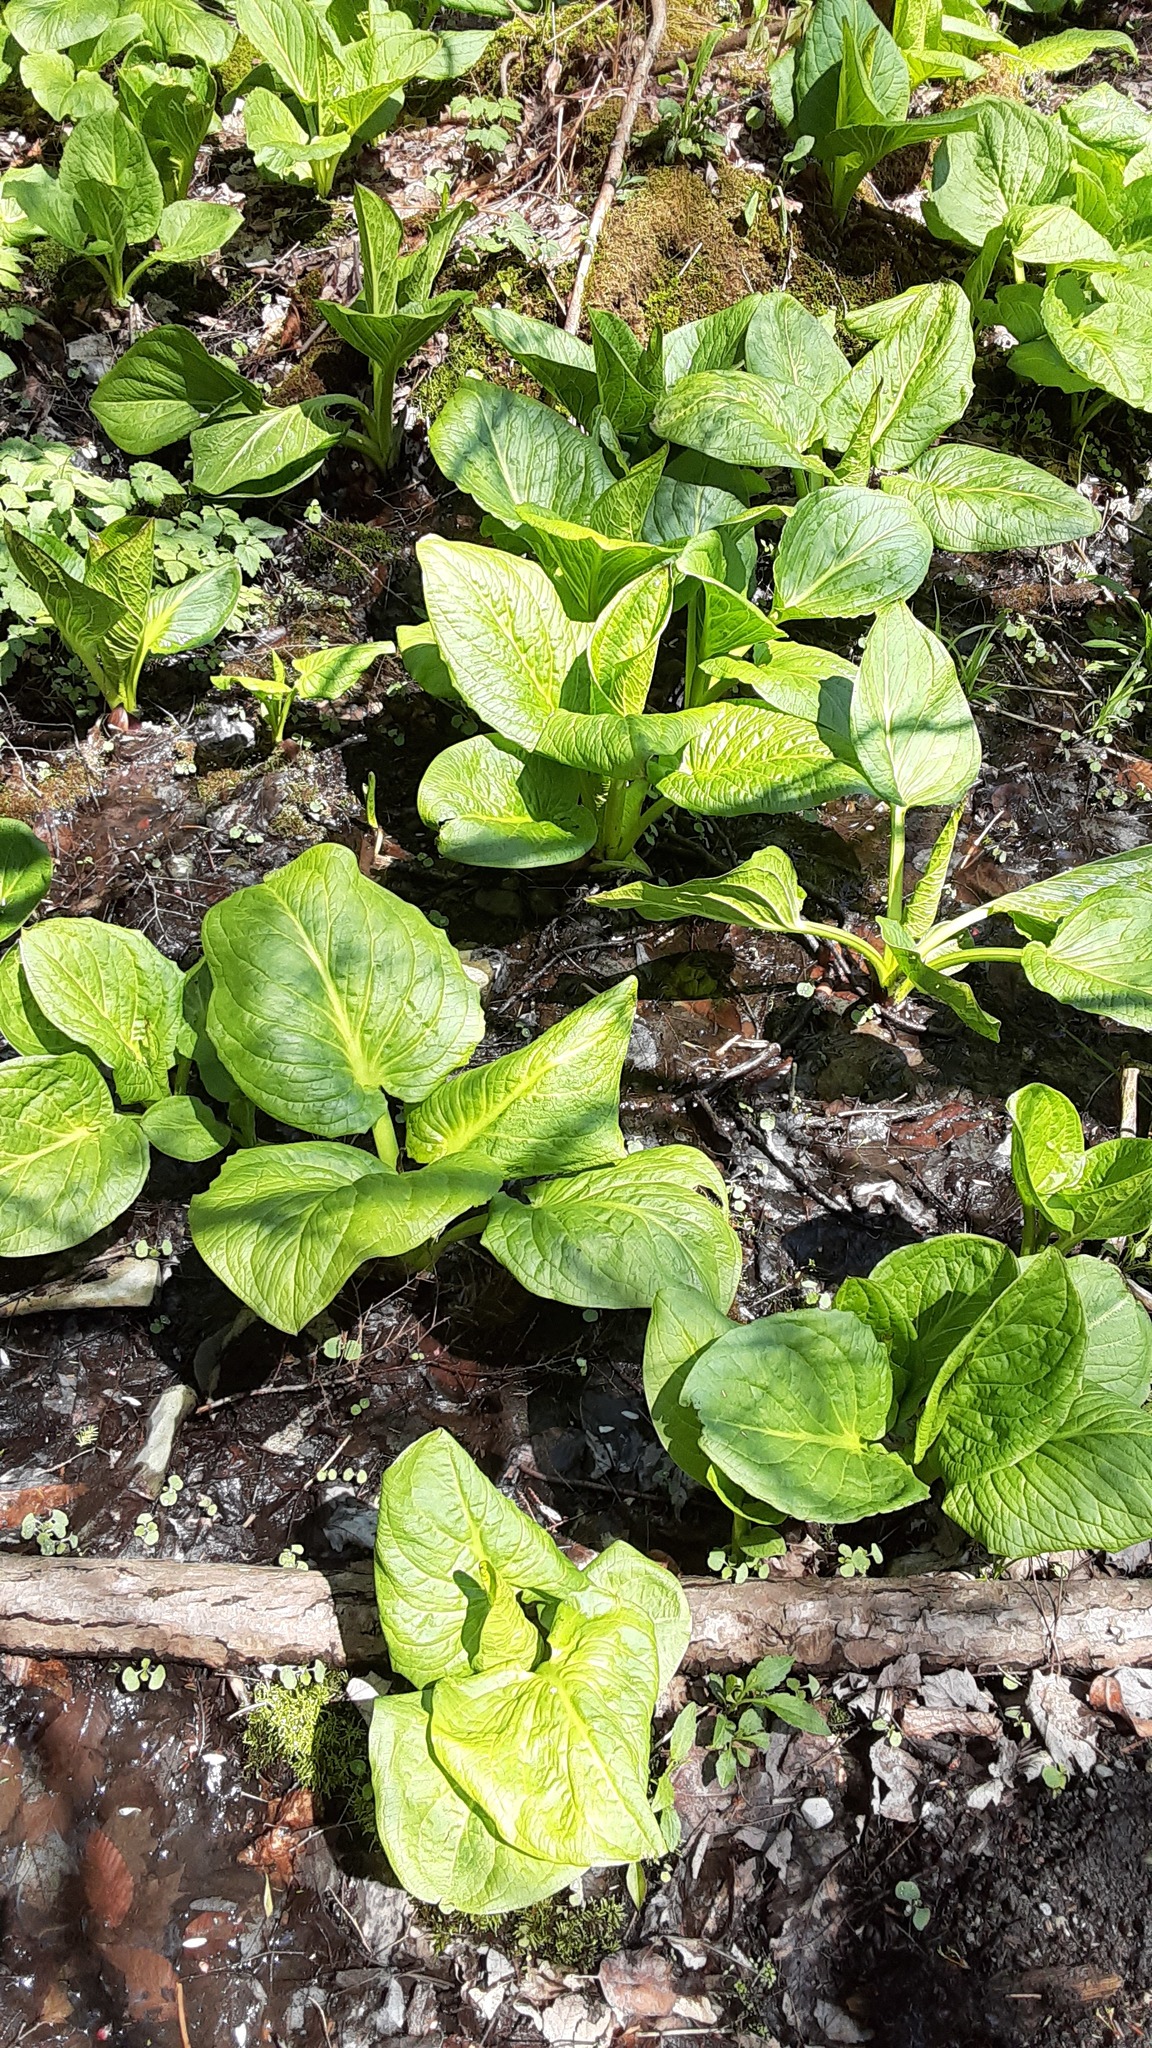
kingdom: Plantae
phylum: Tracheophyta
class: Liliopsida
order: Alismatales
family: Araceae
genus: Symplocarpus
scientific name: Symplocarpus foetidus
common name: Eastern skunk cabbage
